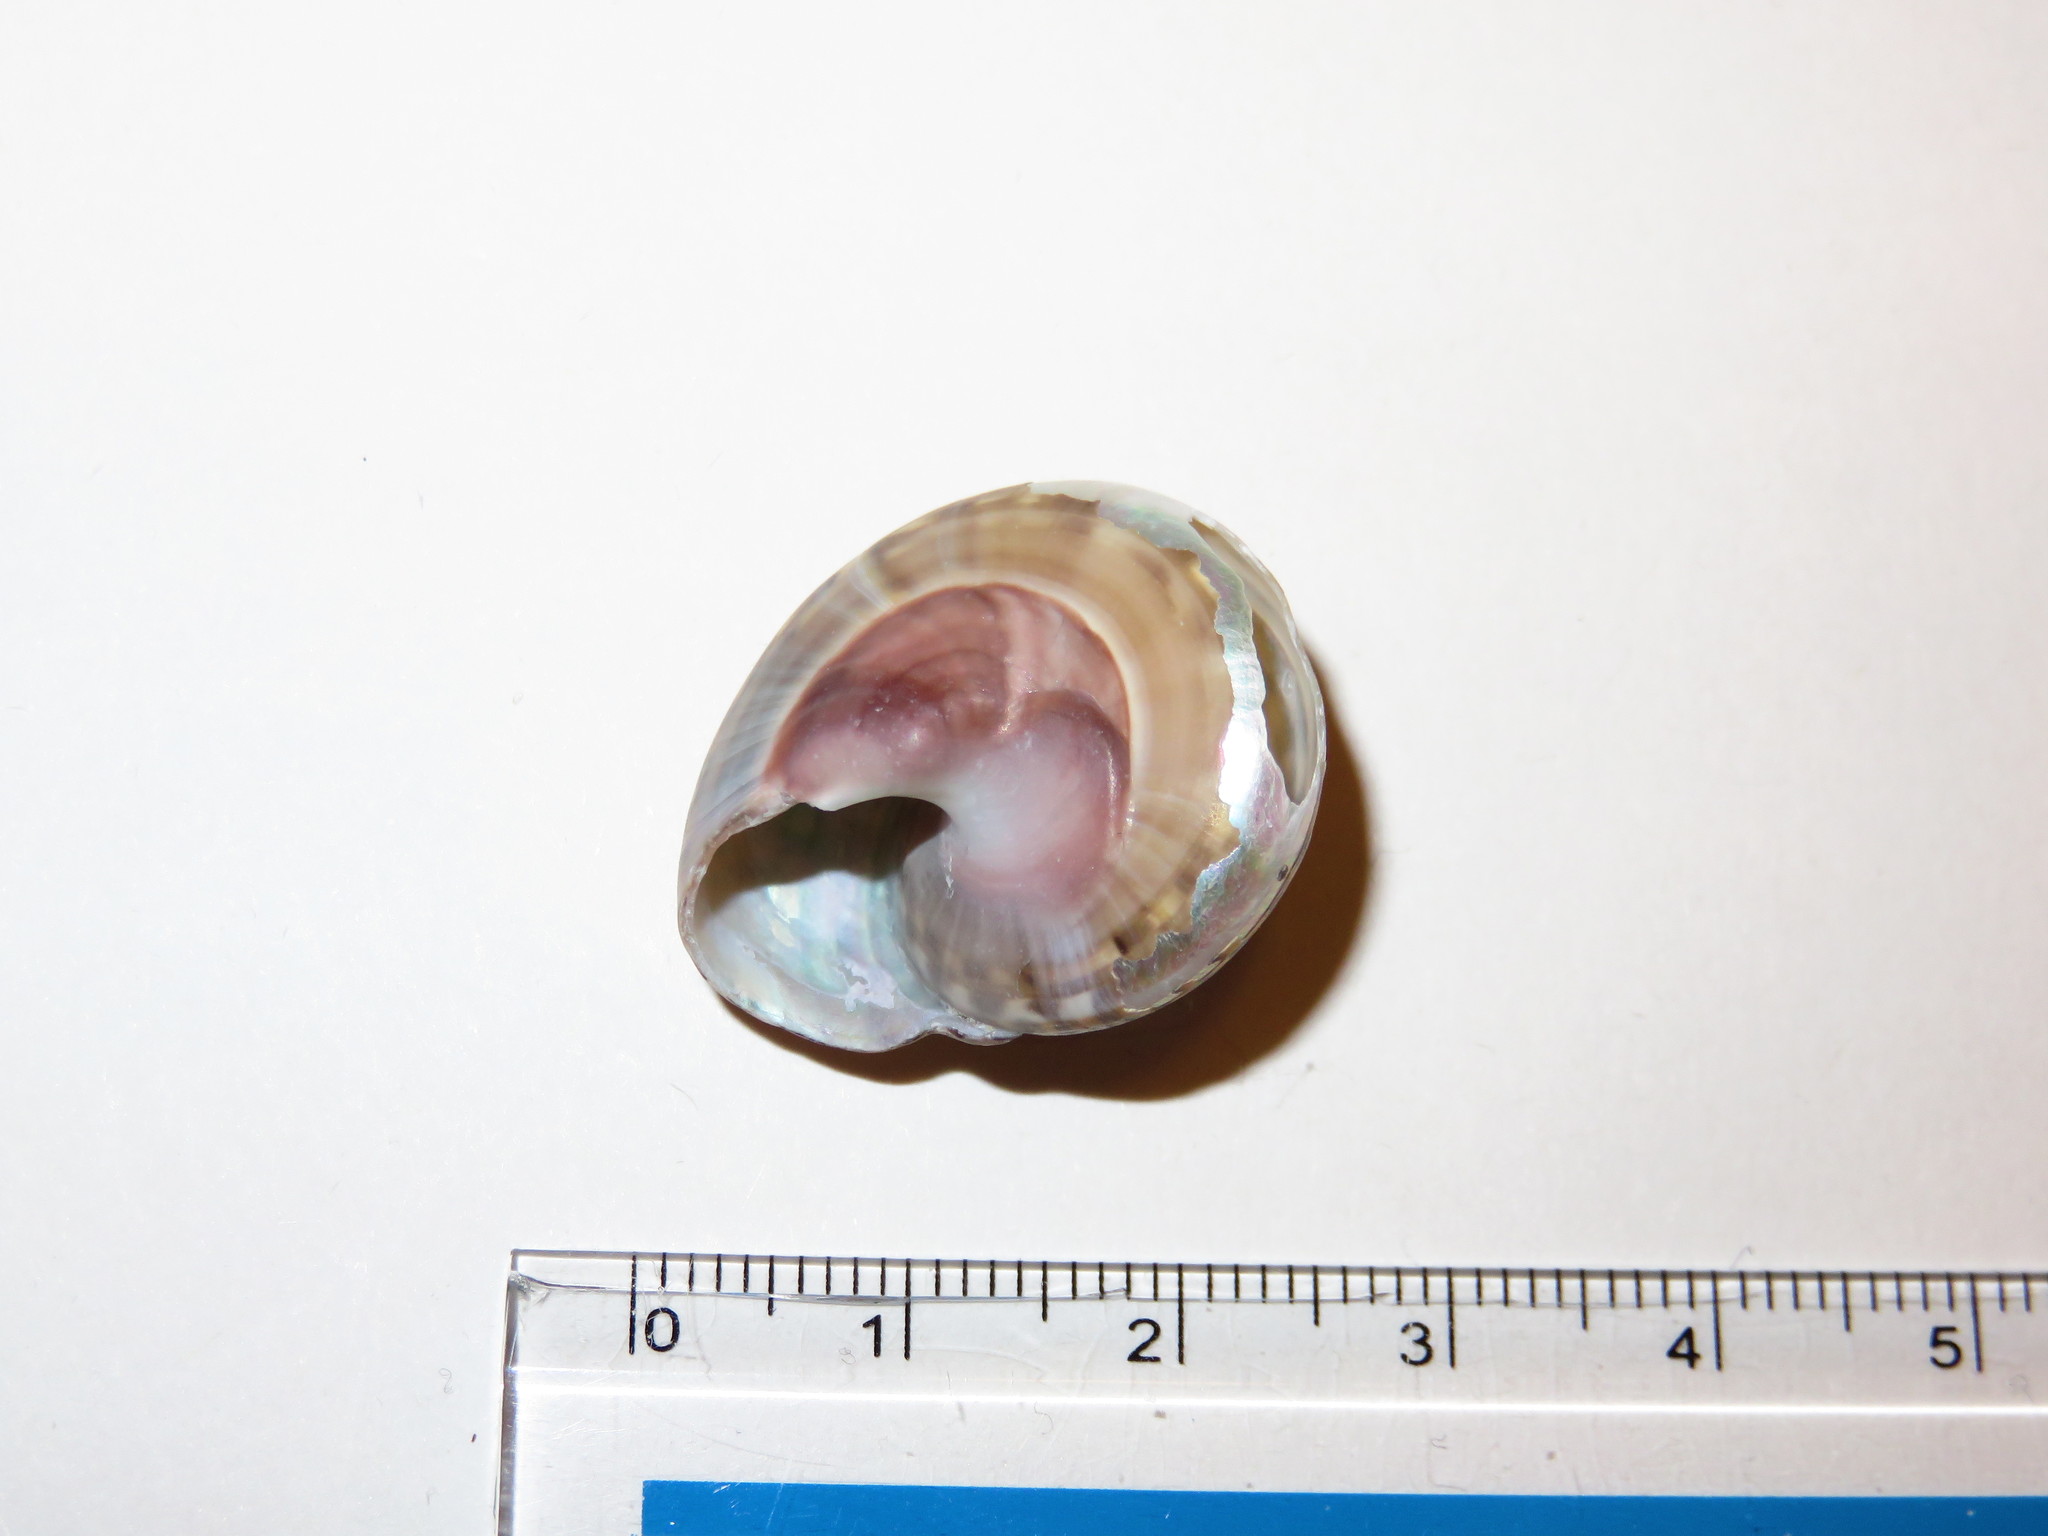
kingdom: Animalia
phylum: Mollusca
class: Gastropoda
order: Trochida
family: Trochidae
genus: Umbonium
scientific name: Umbonium costatum
